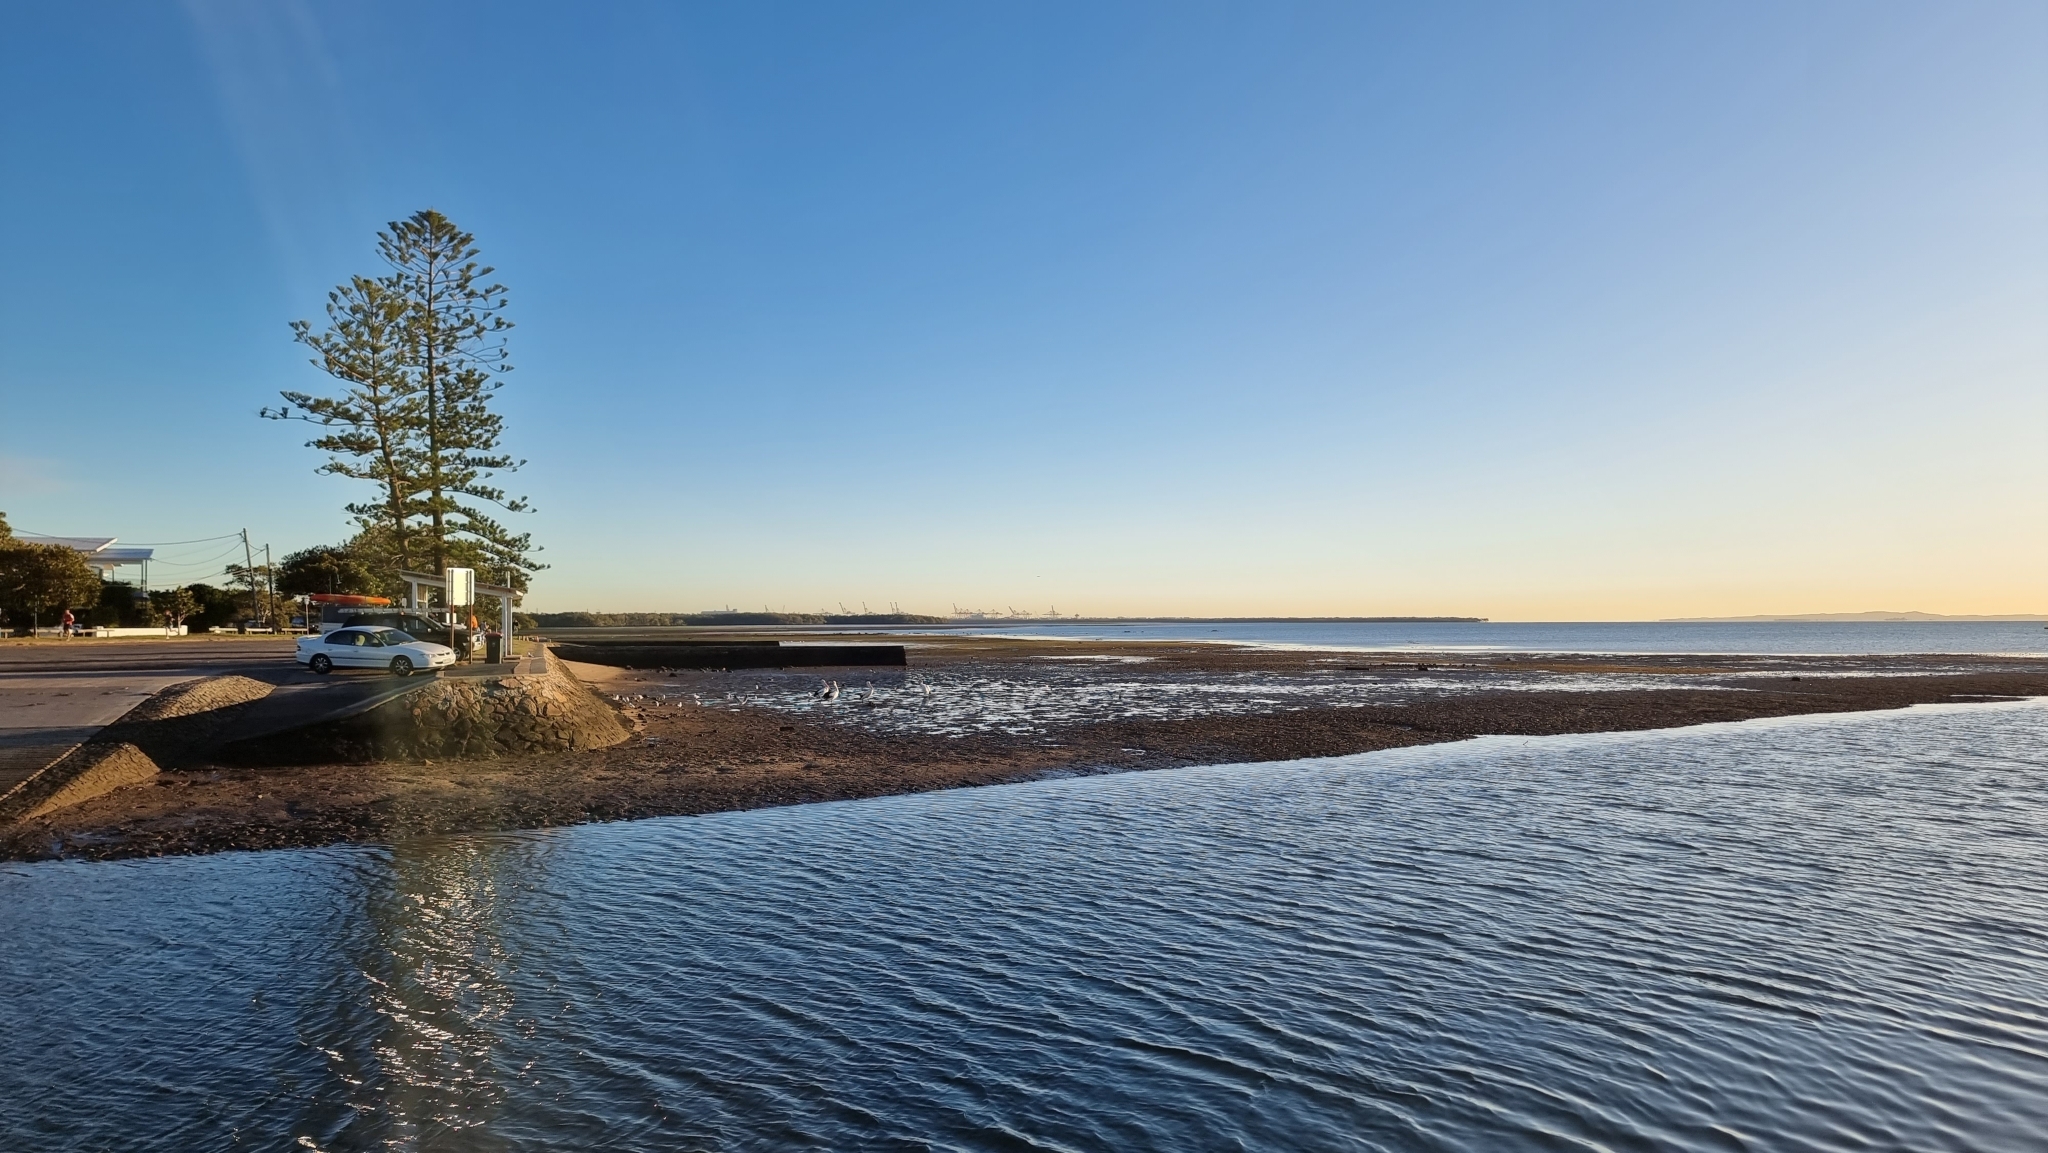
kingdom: Animalia
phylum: Chordata
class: Aves
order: Pelecaniformes
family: Pelecanidae
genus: Pelecanus
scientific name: Pelecanus conspicillatus
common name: Australian pelican
